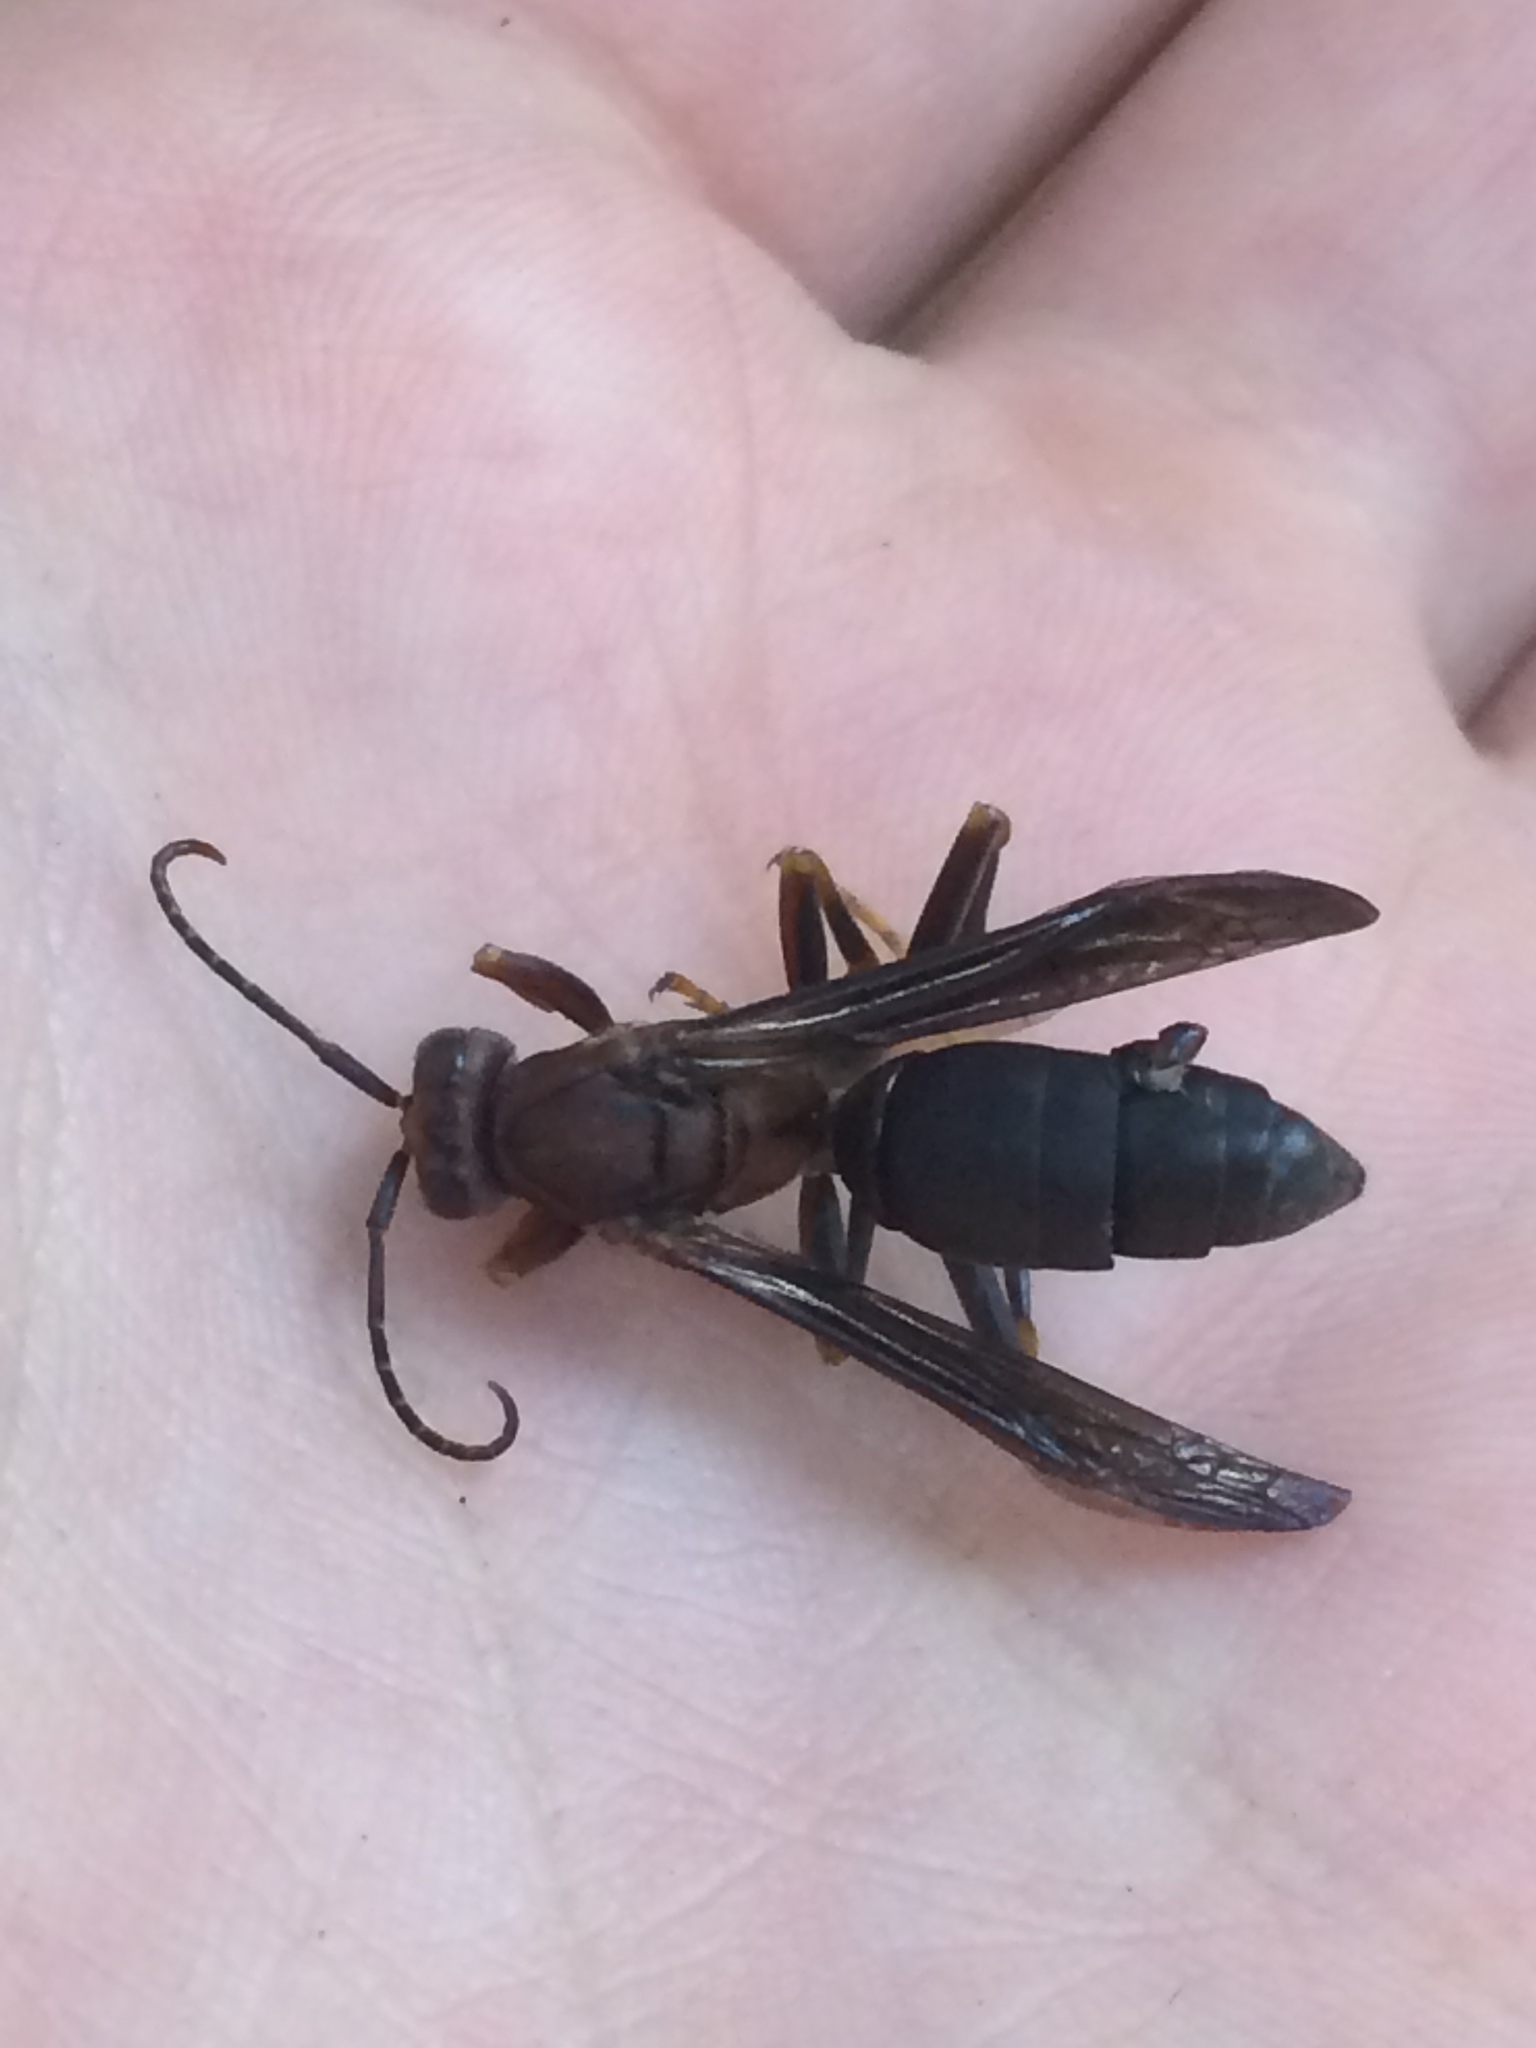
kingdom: Animalia
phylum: Arthropoda
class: Insecta
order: Hymenoptera
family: Eumenidae
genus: Polistes
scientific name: Polistes metricus
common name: Metric paper wasp
